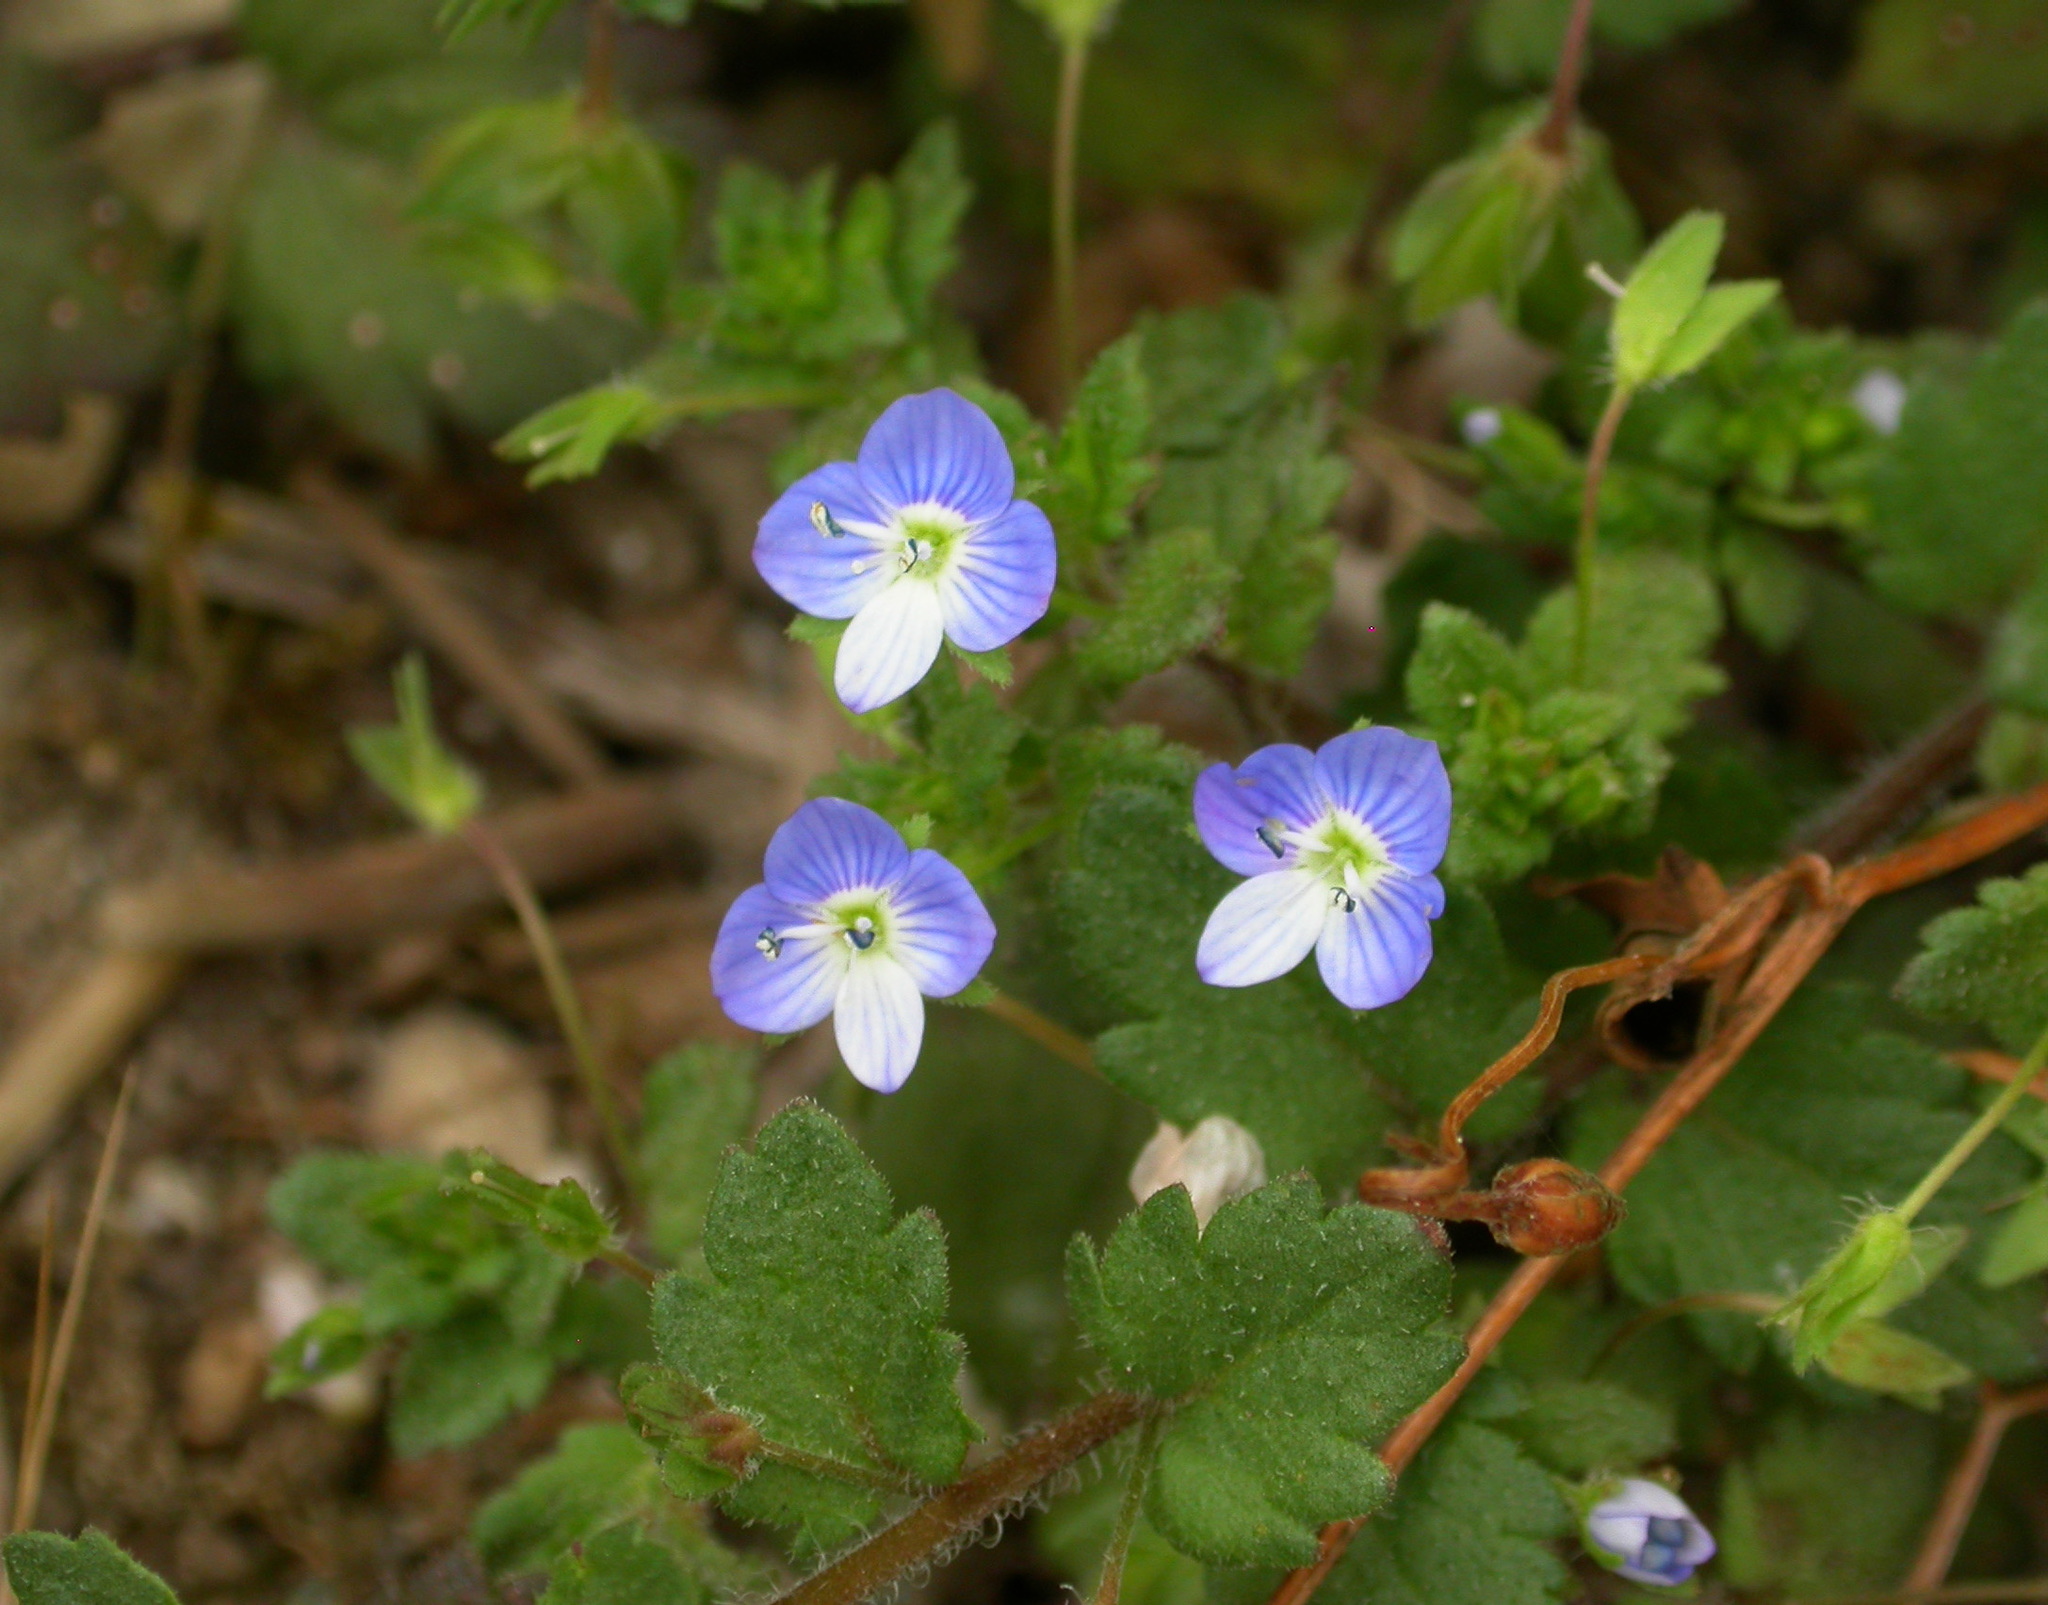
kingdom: Plantae
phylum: Tracheophyta
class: Magnoliopsida
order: Lamiales
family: Plantaginaceae
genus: Veronica
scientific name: Veronica persica
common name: Common field-speedwell
